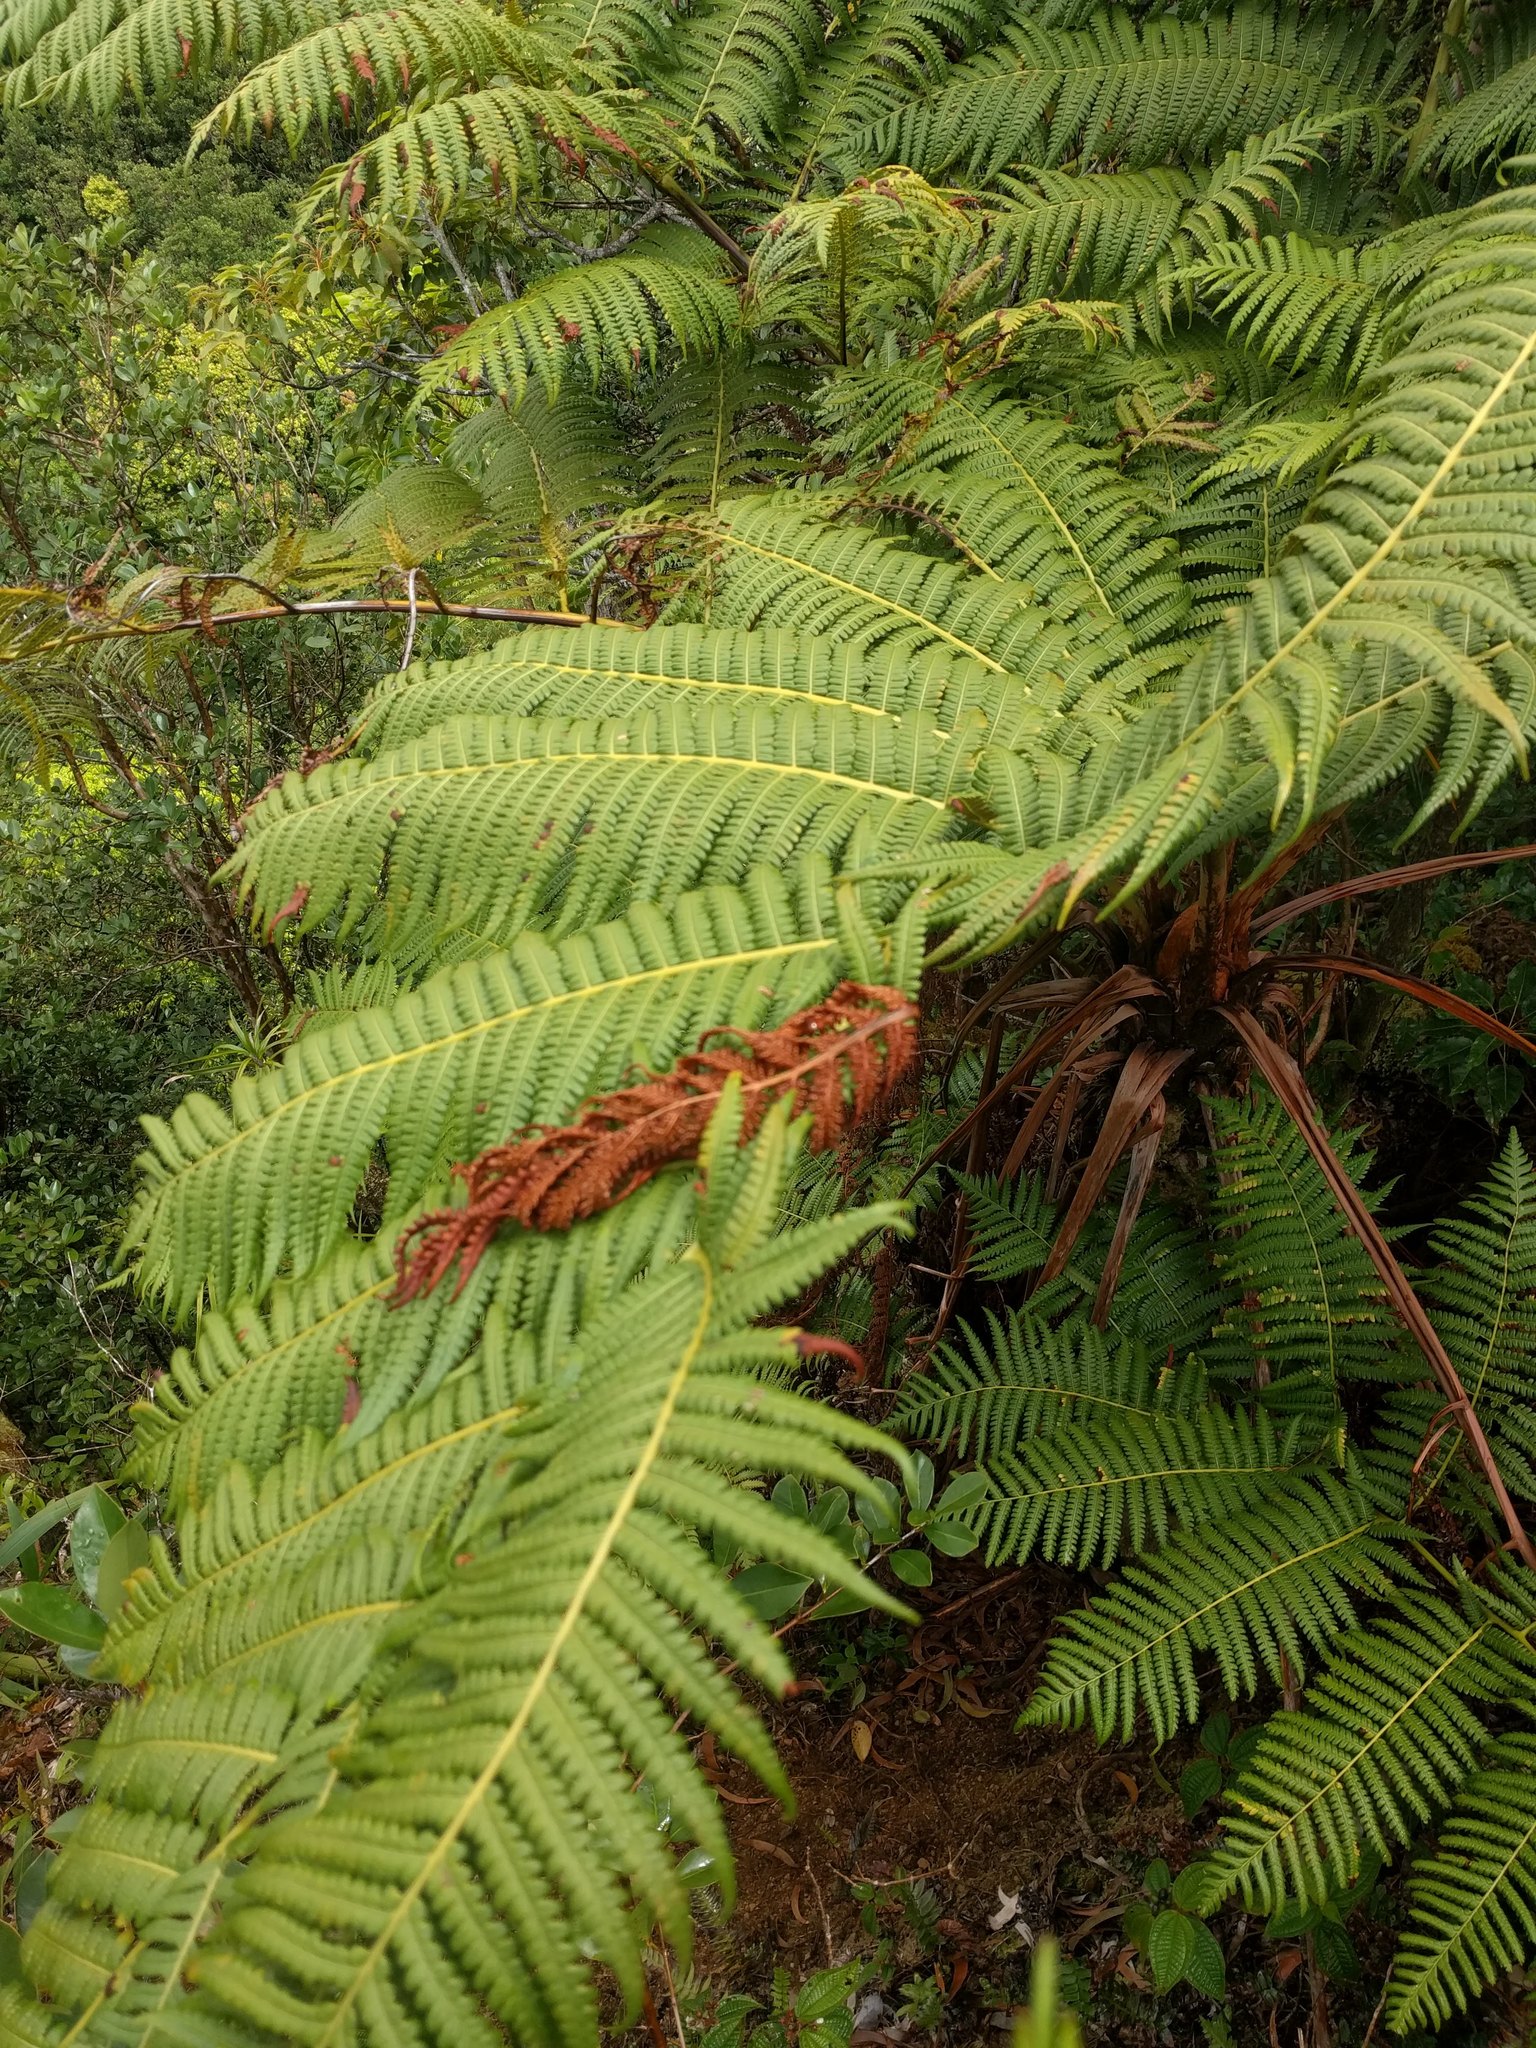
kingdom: Plantae
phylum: Tracheophyta
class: Polypodiopsida
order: Cyatheales
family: Cibotiaceae
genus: Cibotium
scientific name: Cibotium chamissoi
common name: Hawaiian tree fern
